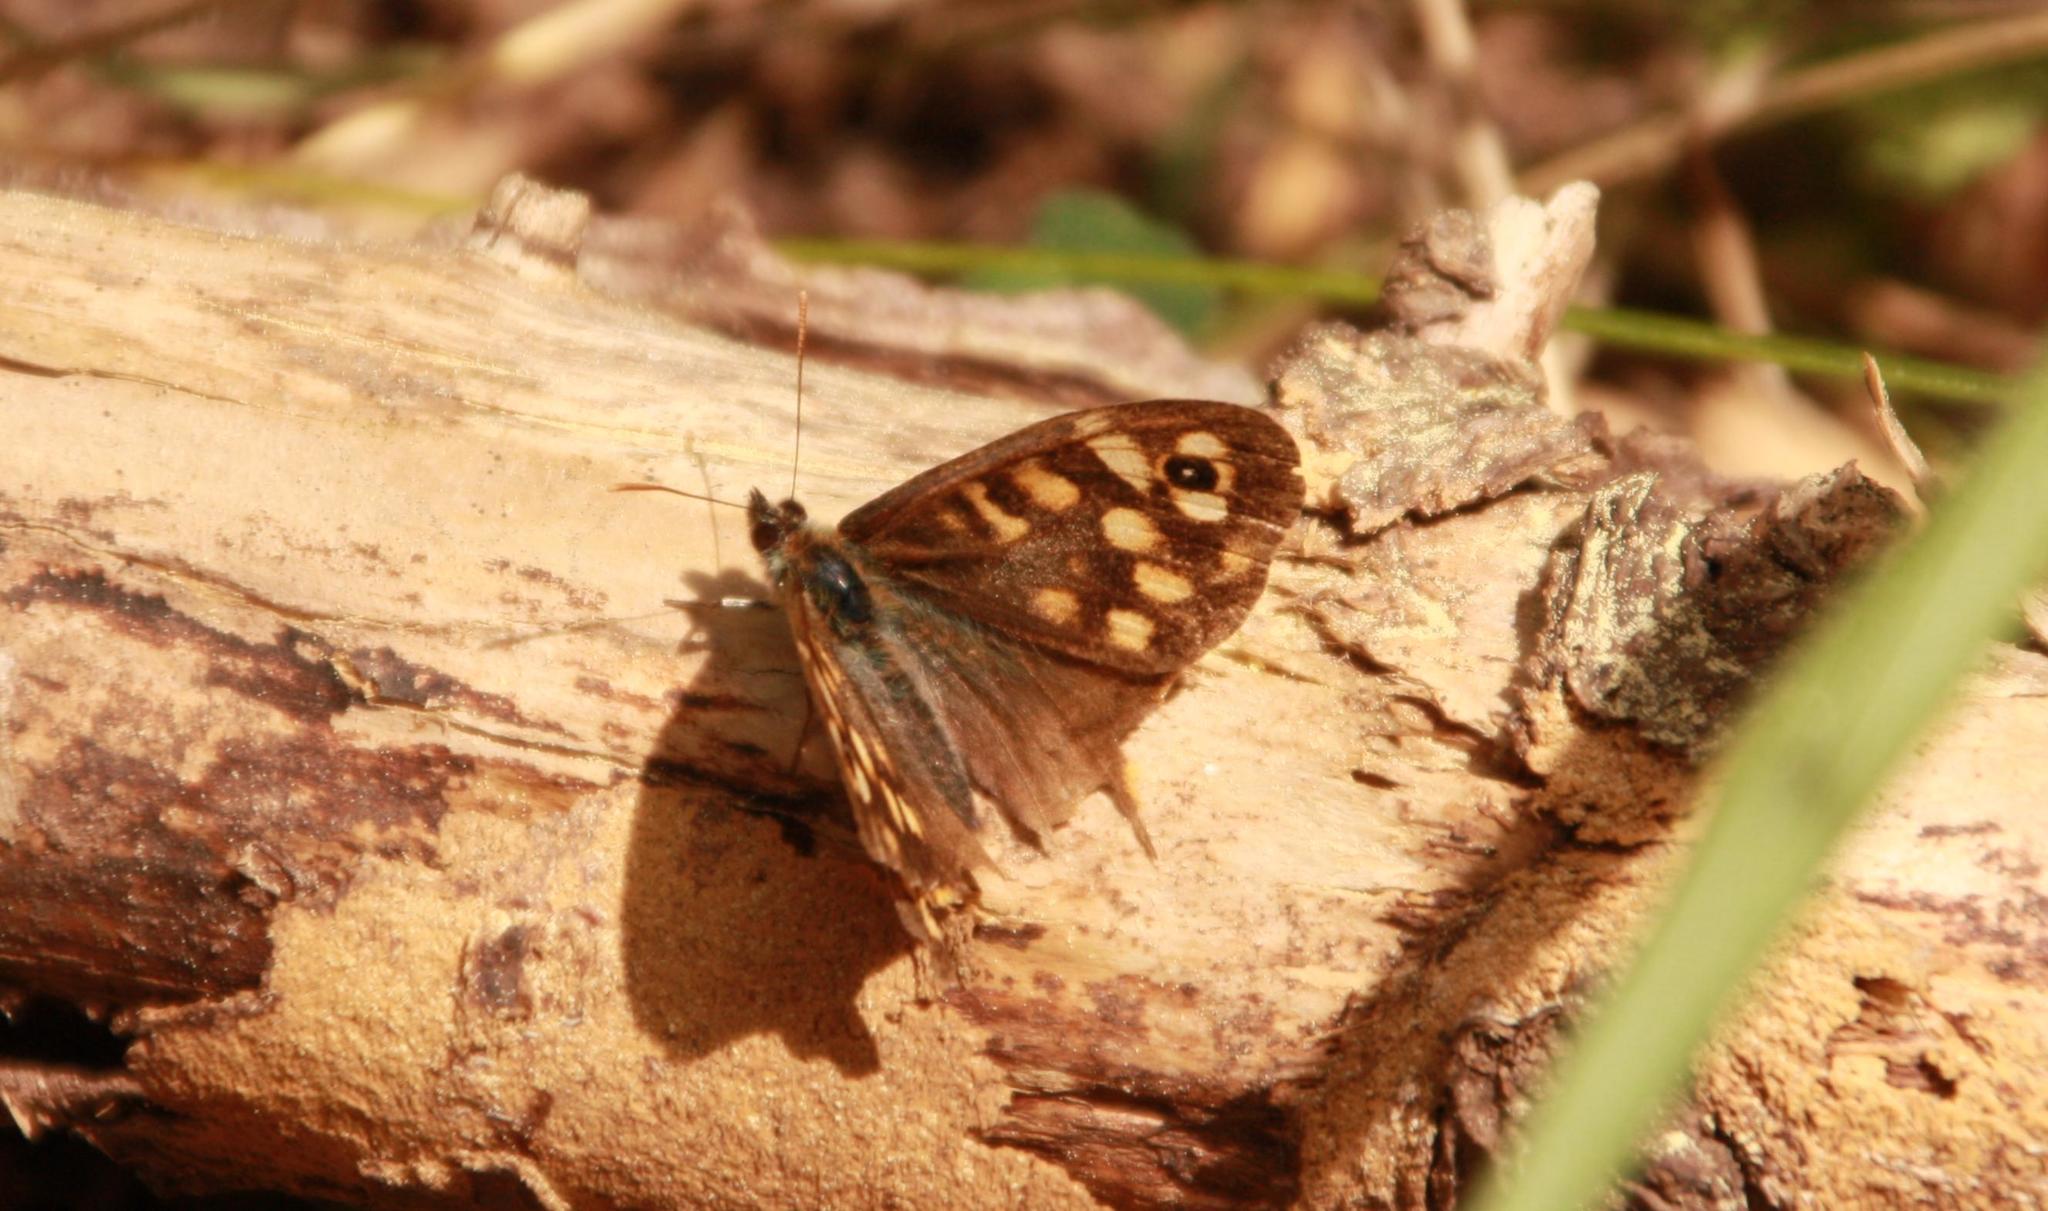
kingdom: Animalia
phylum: Arthropoda
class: Insecta
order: Lepidoptera
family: Nymphalidae
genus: Pararge
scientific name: Pararge aegeria
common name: Speckled wood
